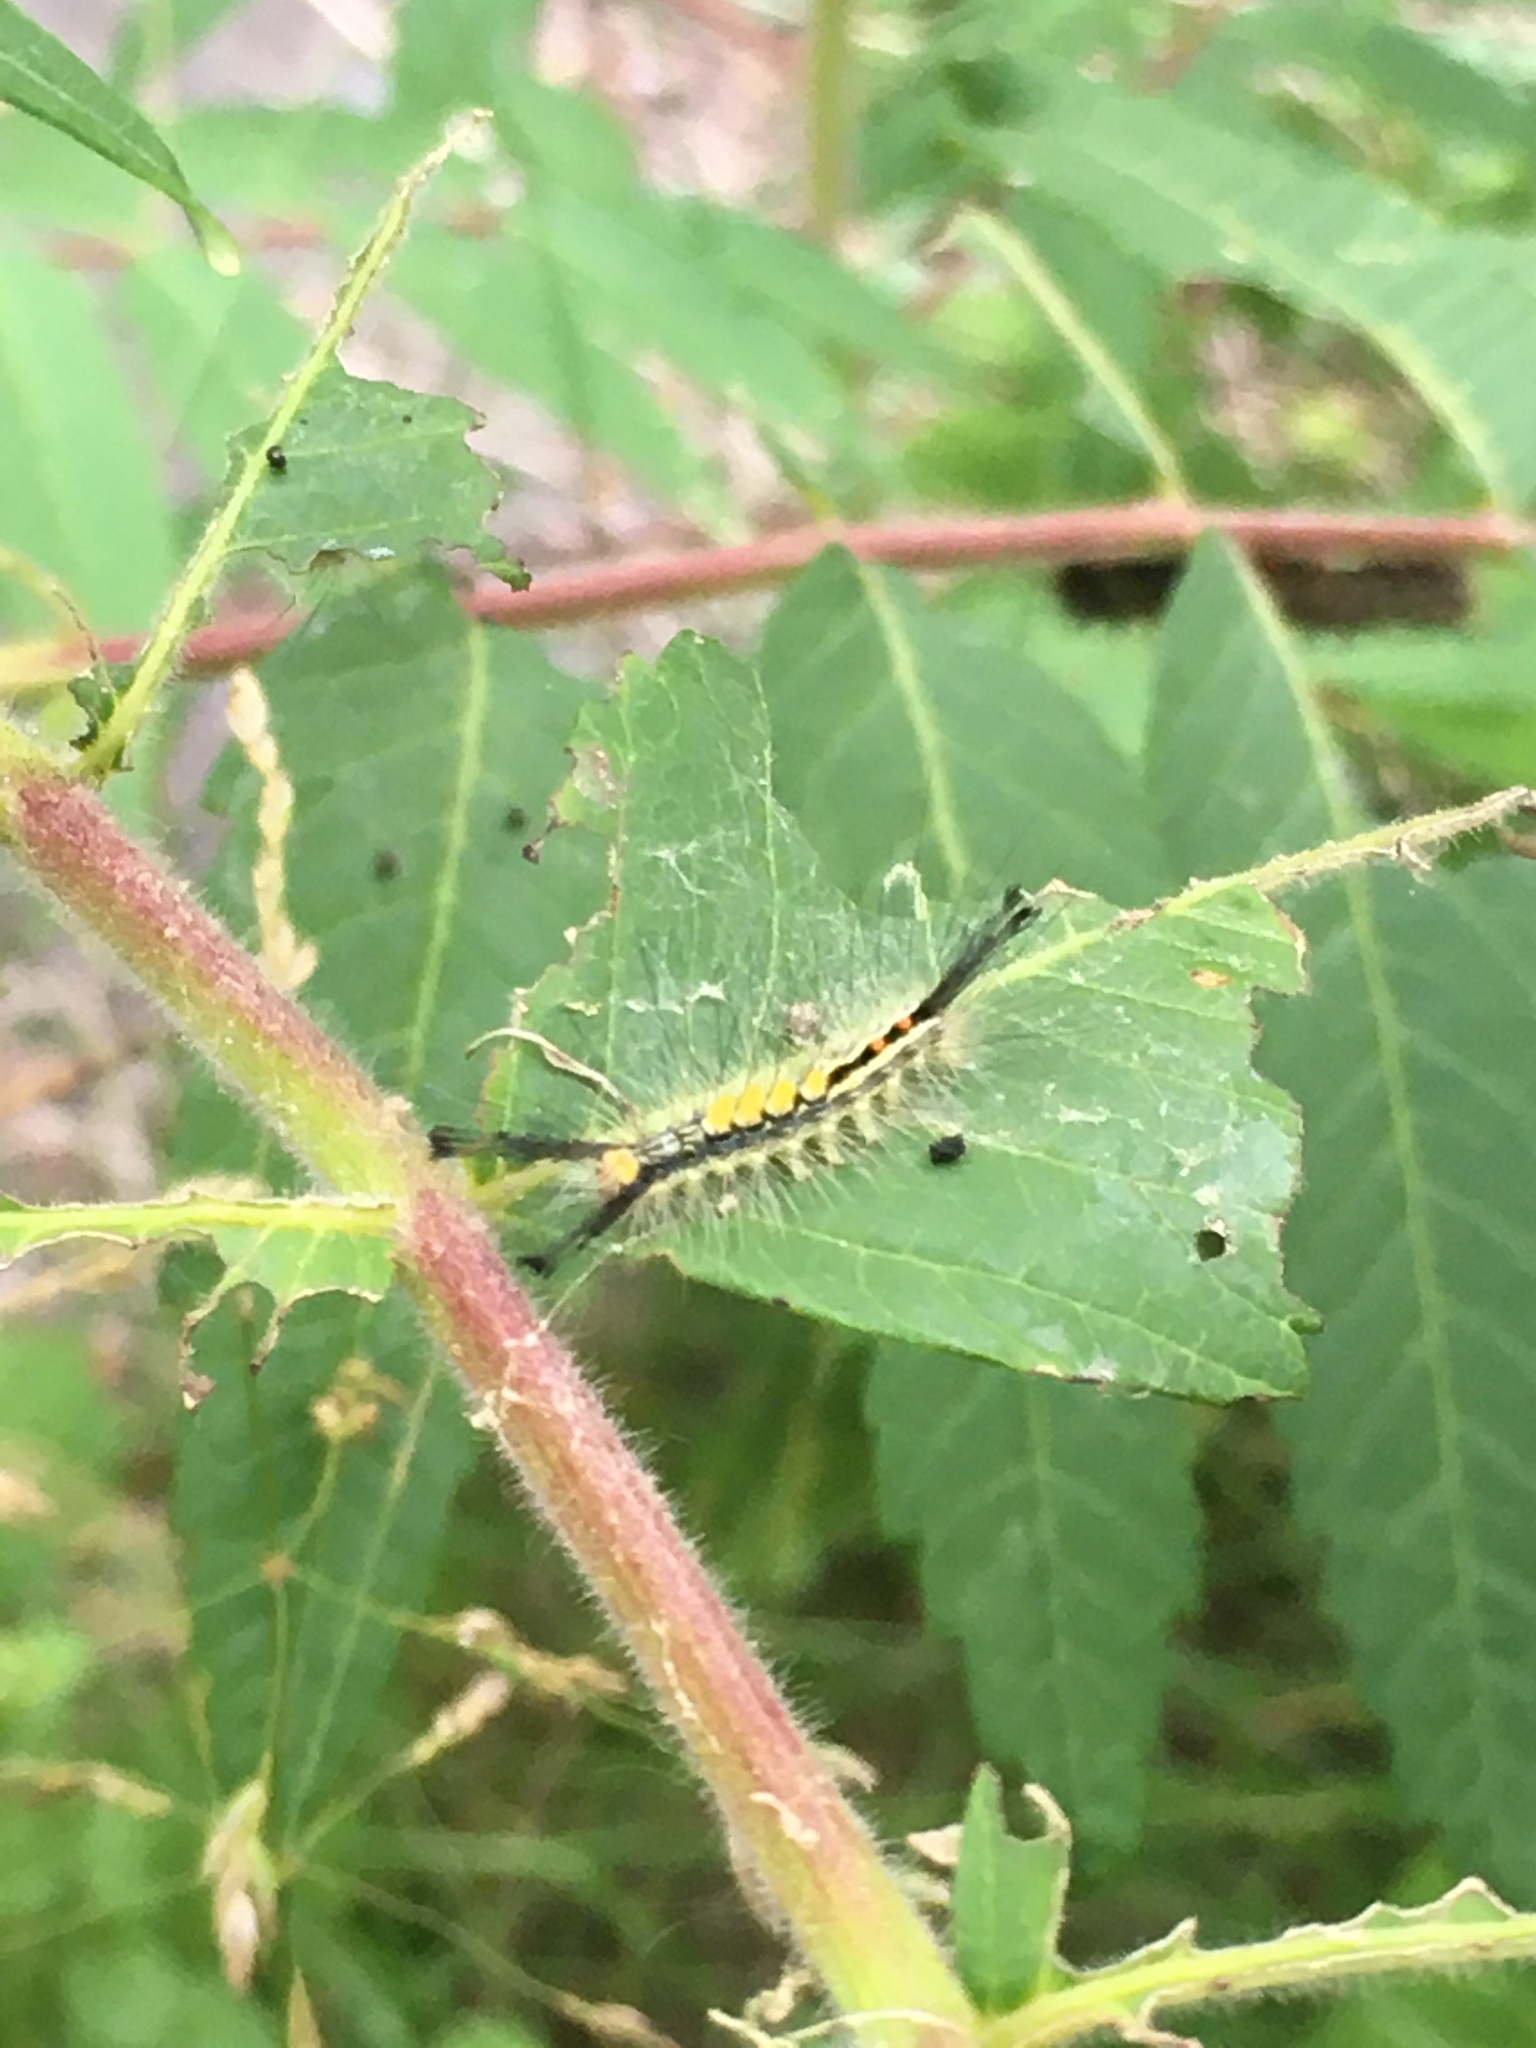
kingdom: Animalia
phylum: Arthropoda
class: Insecta
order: Lepidoptera
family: Erebidae
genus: Orgyia
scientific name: Orgyia leucostigma
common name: White-marked tussock moth
